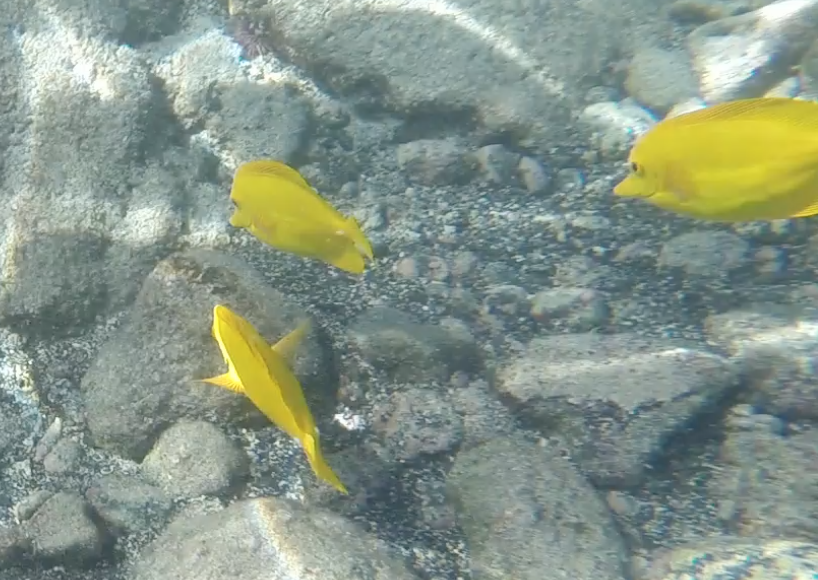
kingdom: Animalia
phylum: Chordata
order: Perciformes
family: Acanthuridae
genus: Zebrasoma
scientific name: Zebrasoma flavescens
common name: Yellow tang
